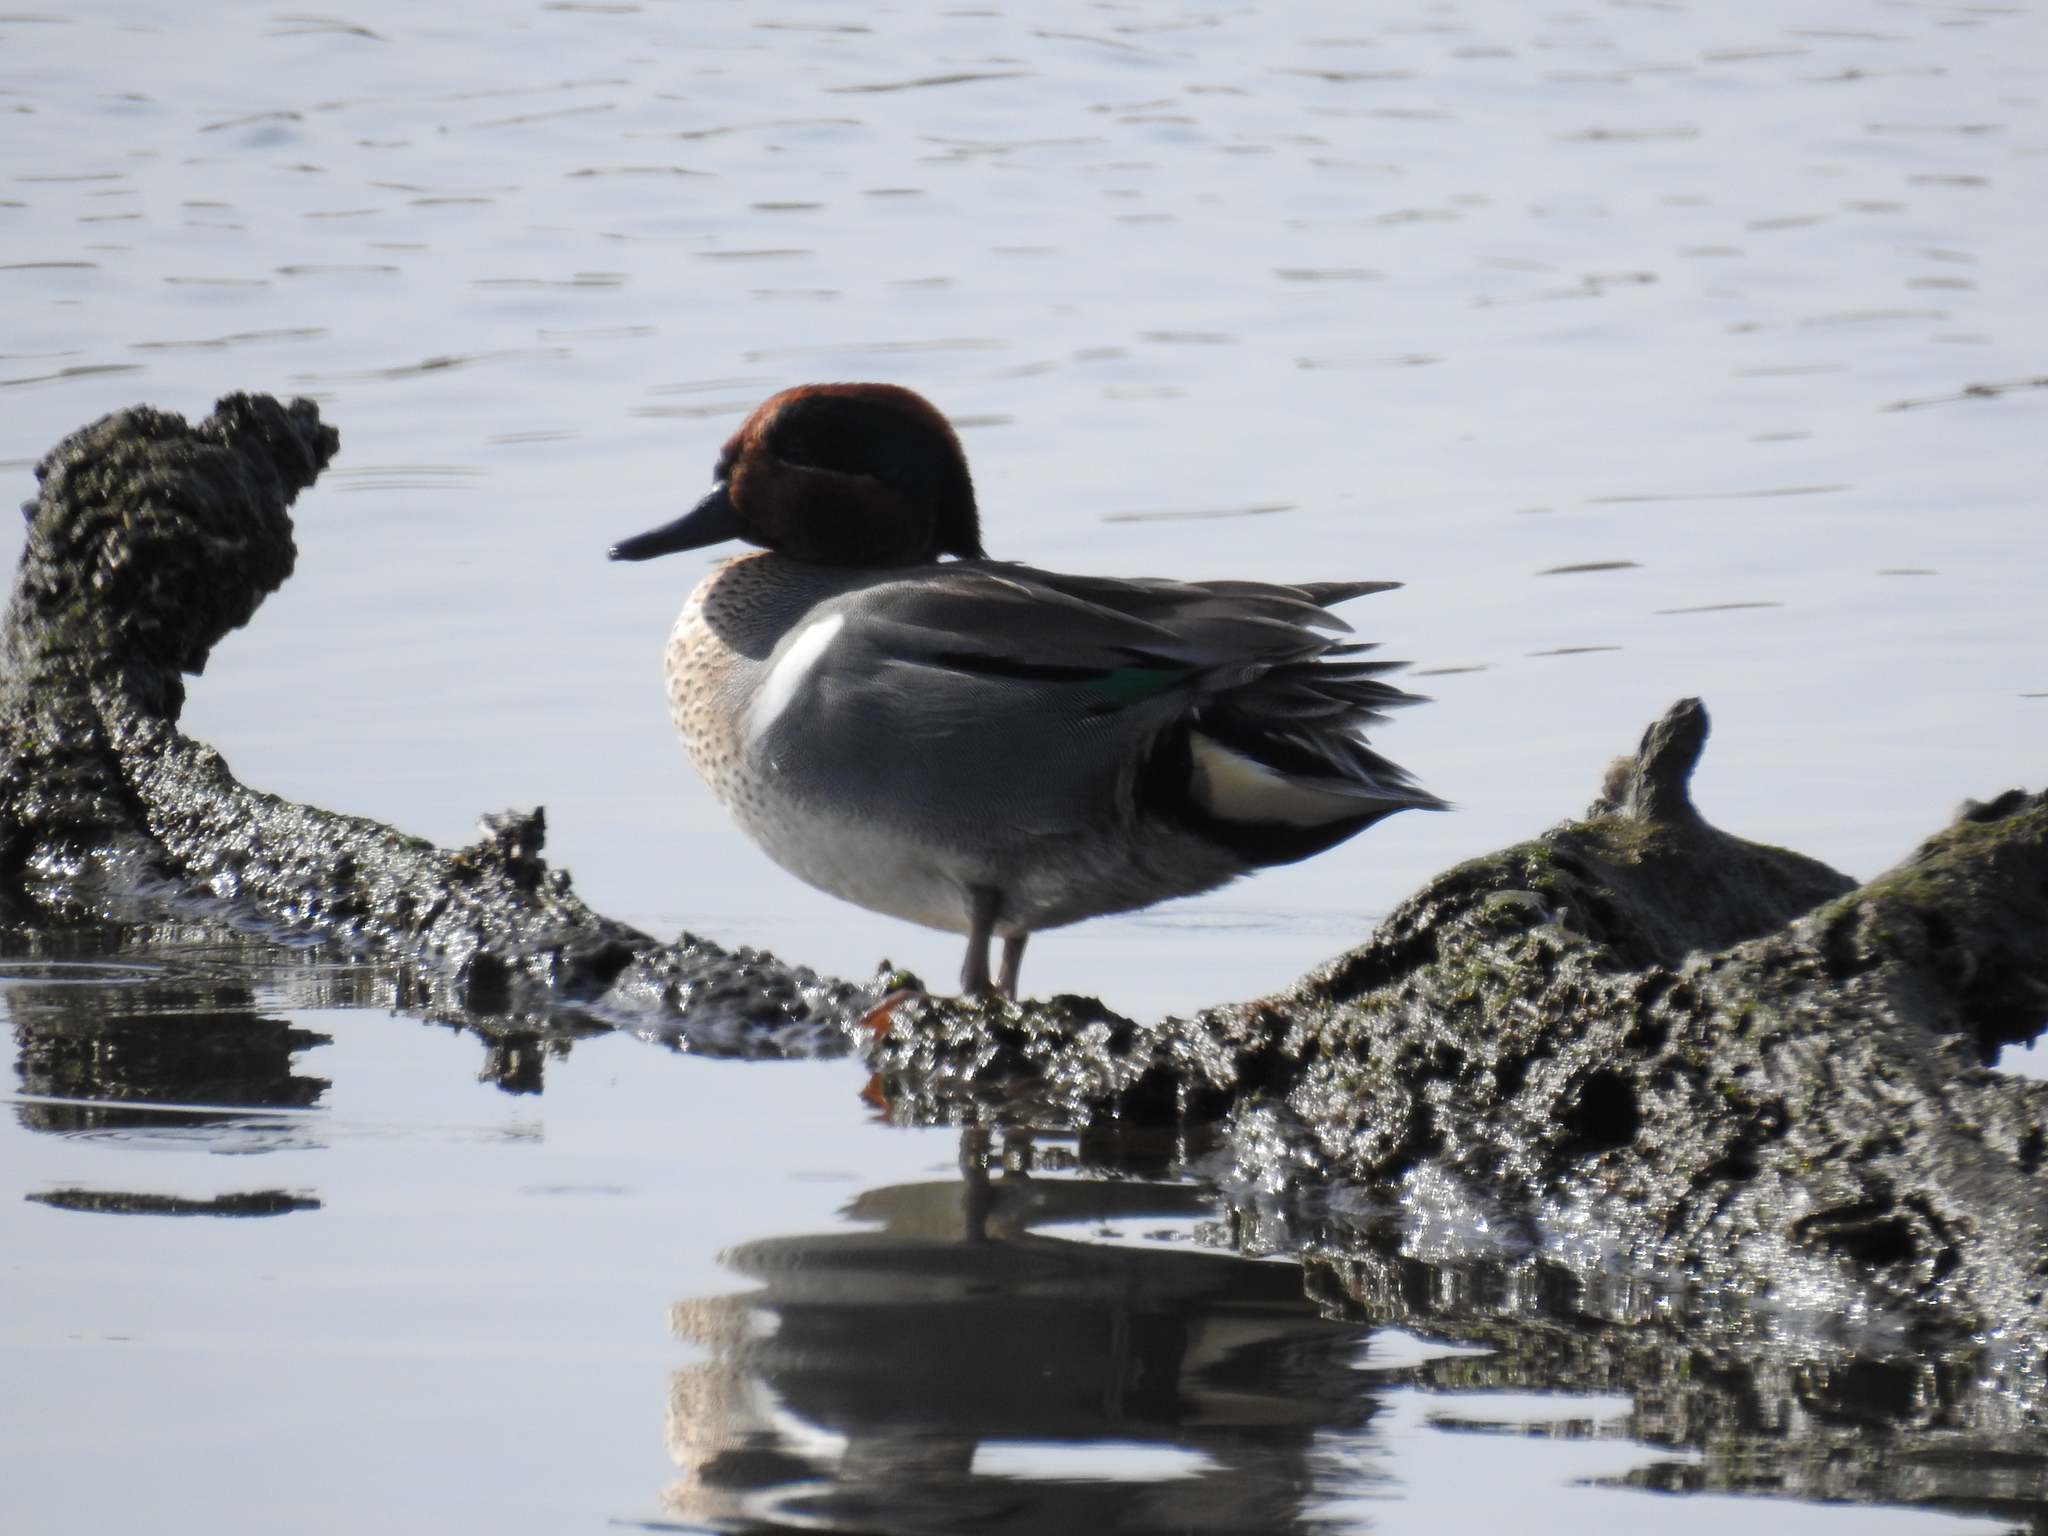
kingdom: Animalia
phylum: Chordata
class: Aves
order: Anseriformes
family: Anatidae
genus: Anas
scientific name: Anas crecca
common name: Eurasian teal
